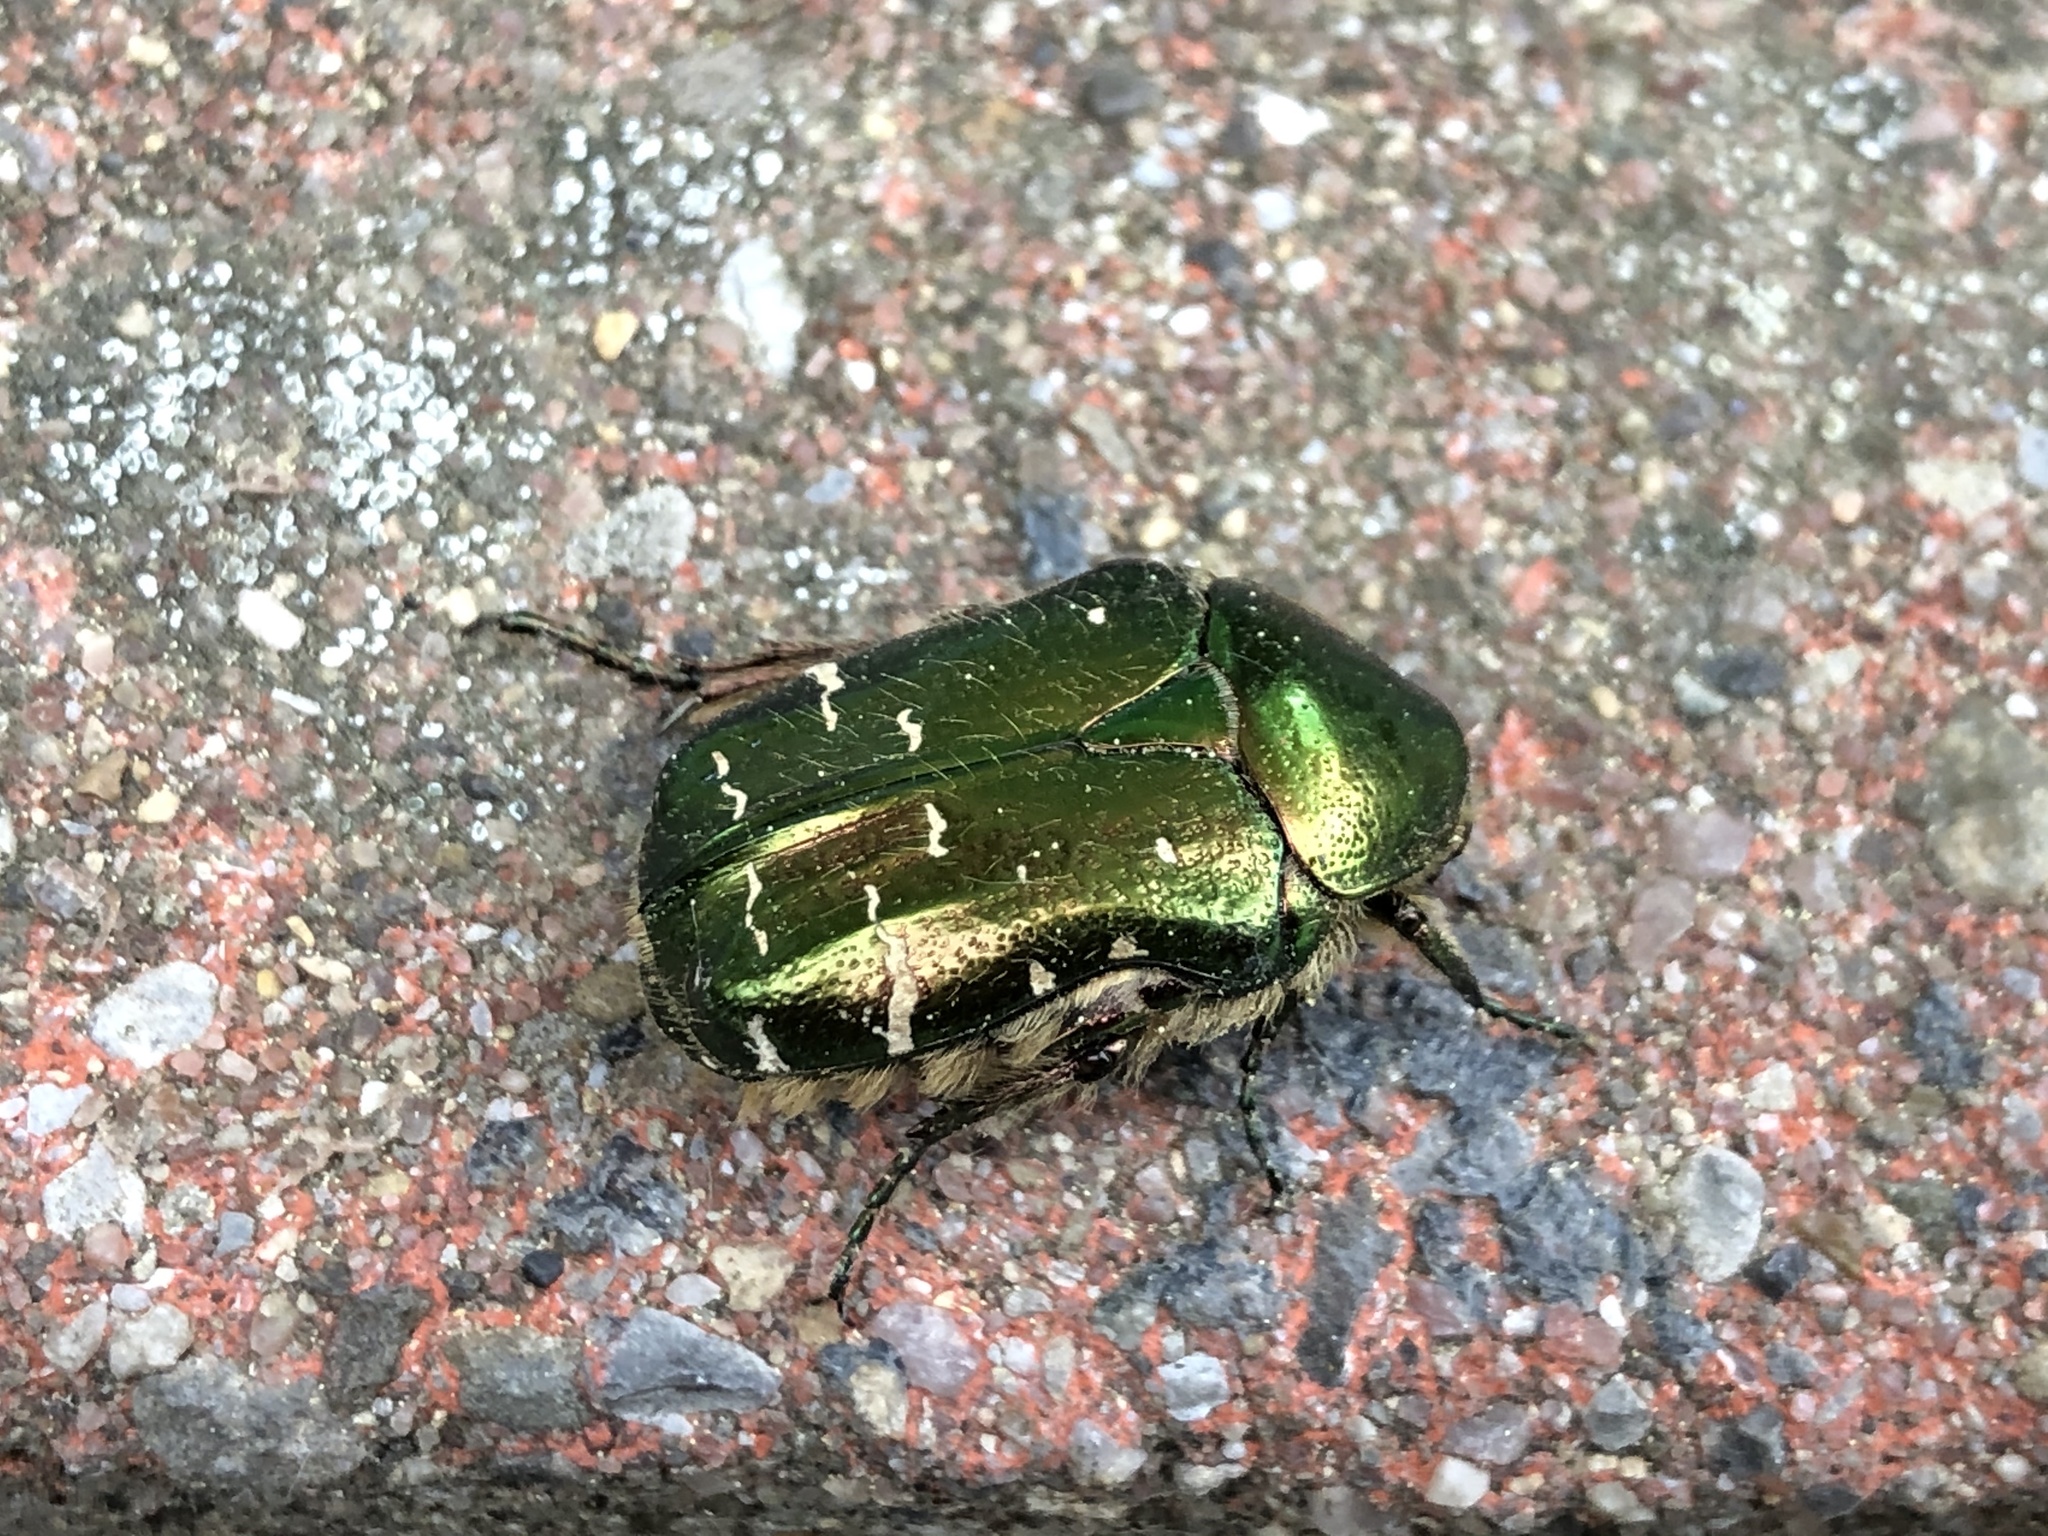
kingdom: Animalia
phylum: Arthropoda
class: Insecta
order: Coleoptera
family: Scarabaeidae
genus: Cetonia
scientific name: Cetonia aurata
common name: Rose chafer
